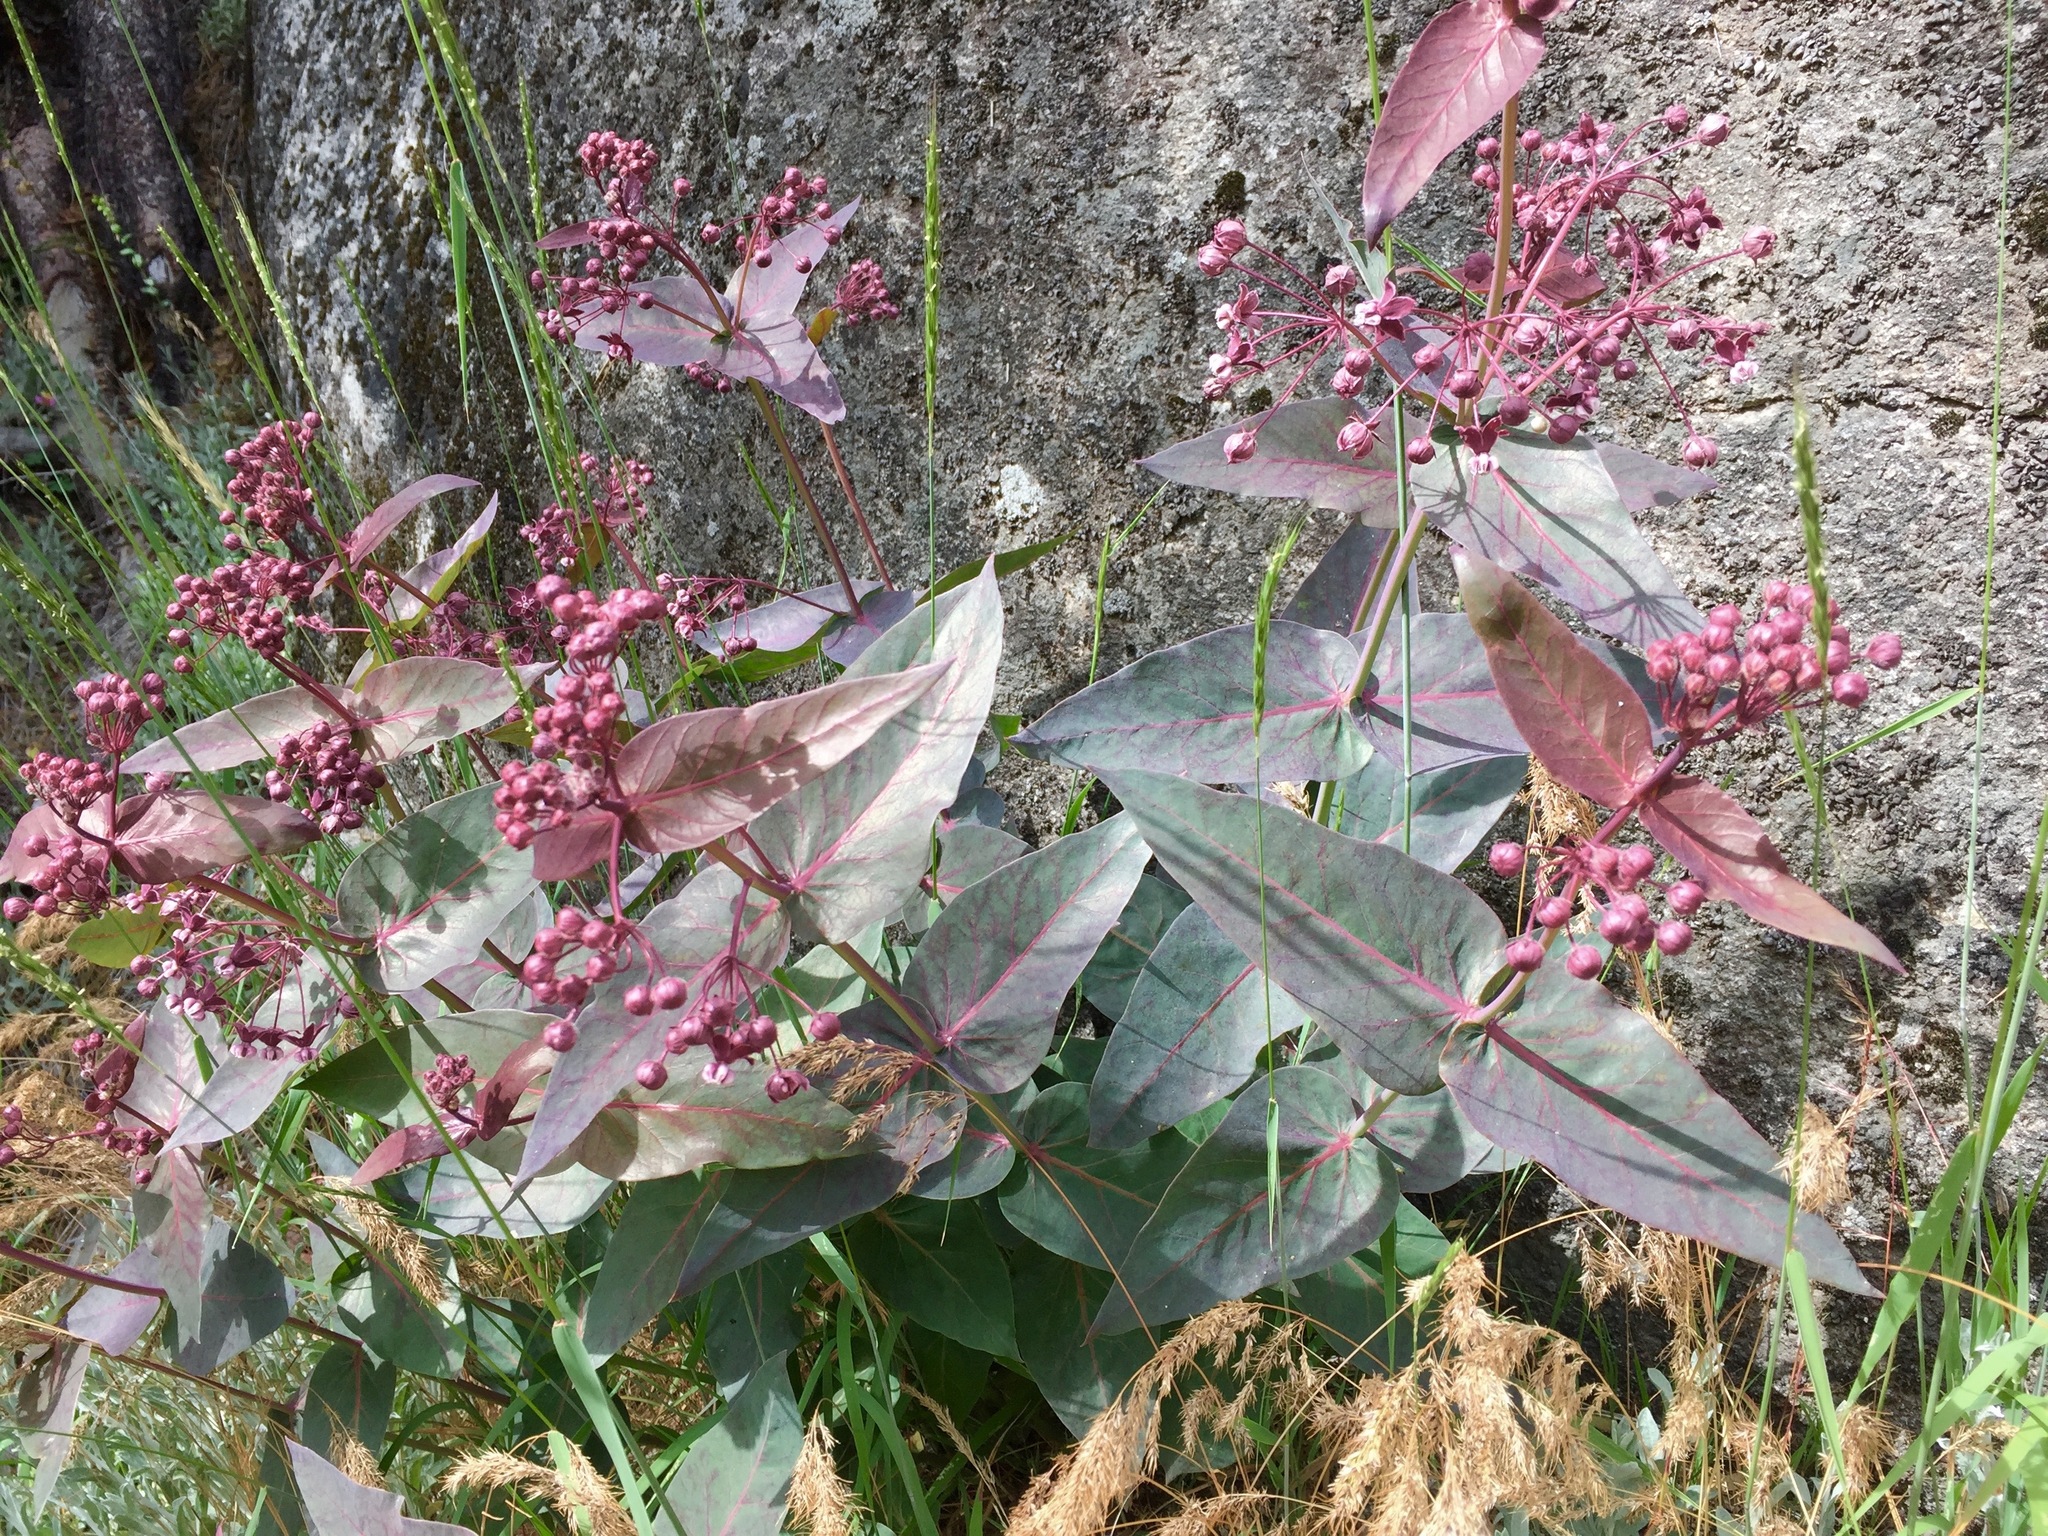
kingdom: Plantae
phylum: Tracheophyta
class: Magnoliopsida
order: Gentianales
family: Apocynaceae
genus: Asclepias
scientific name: Asclepias cordifolia
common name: Purple milkweed
